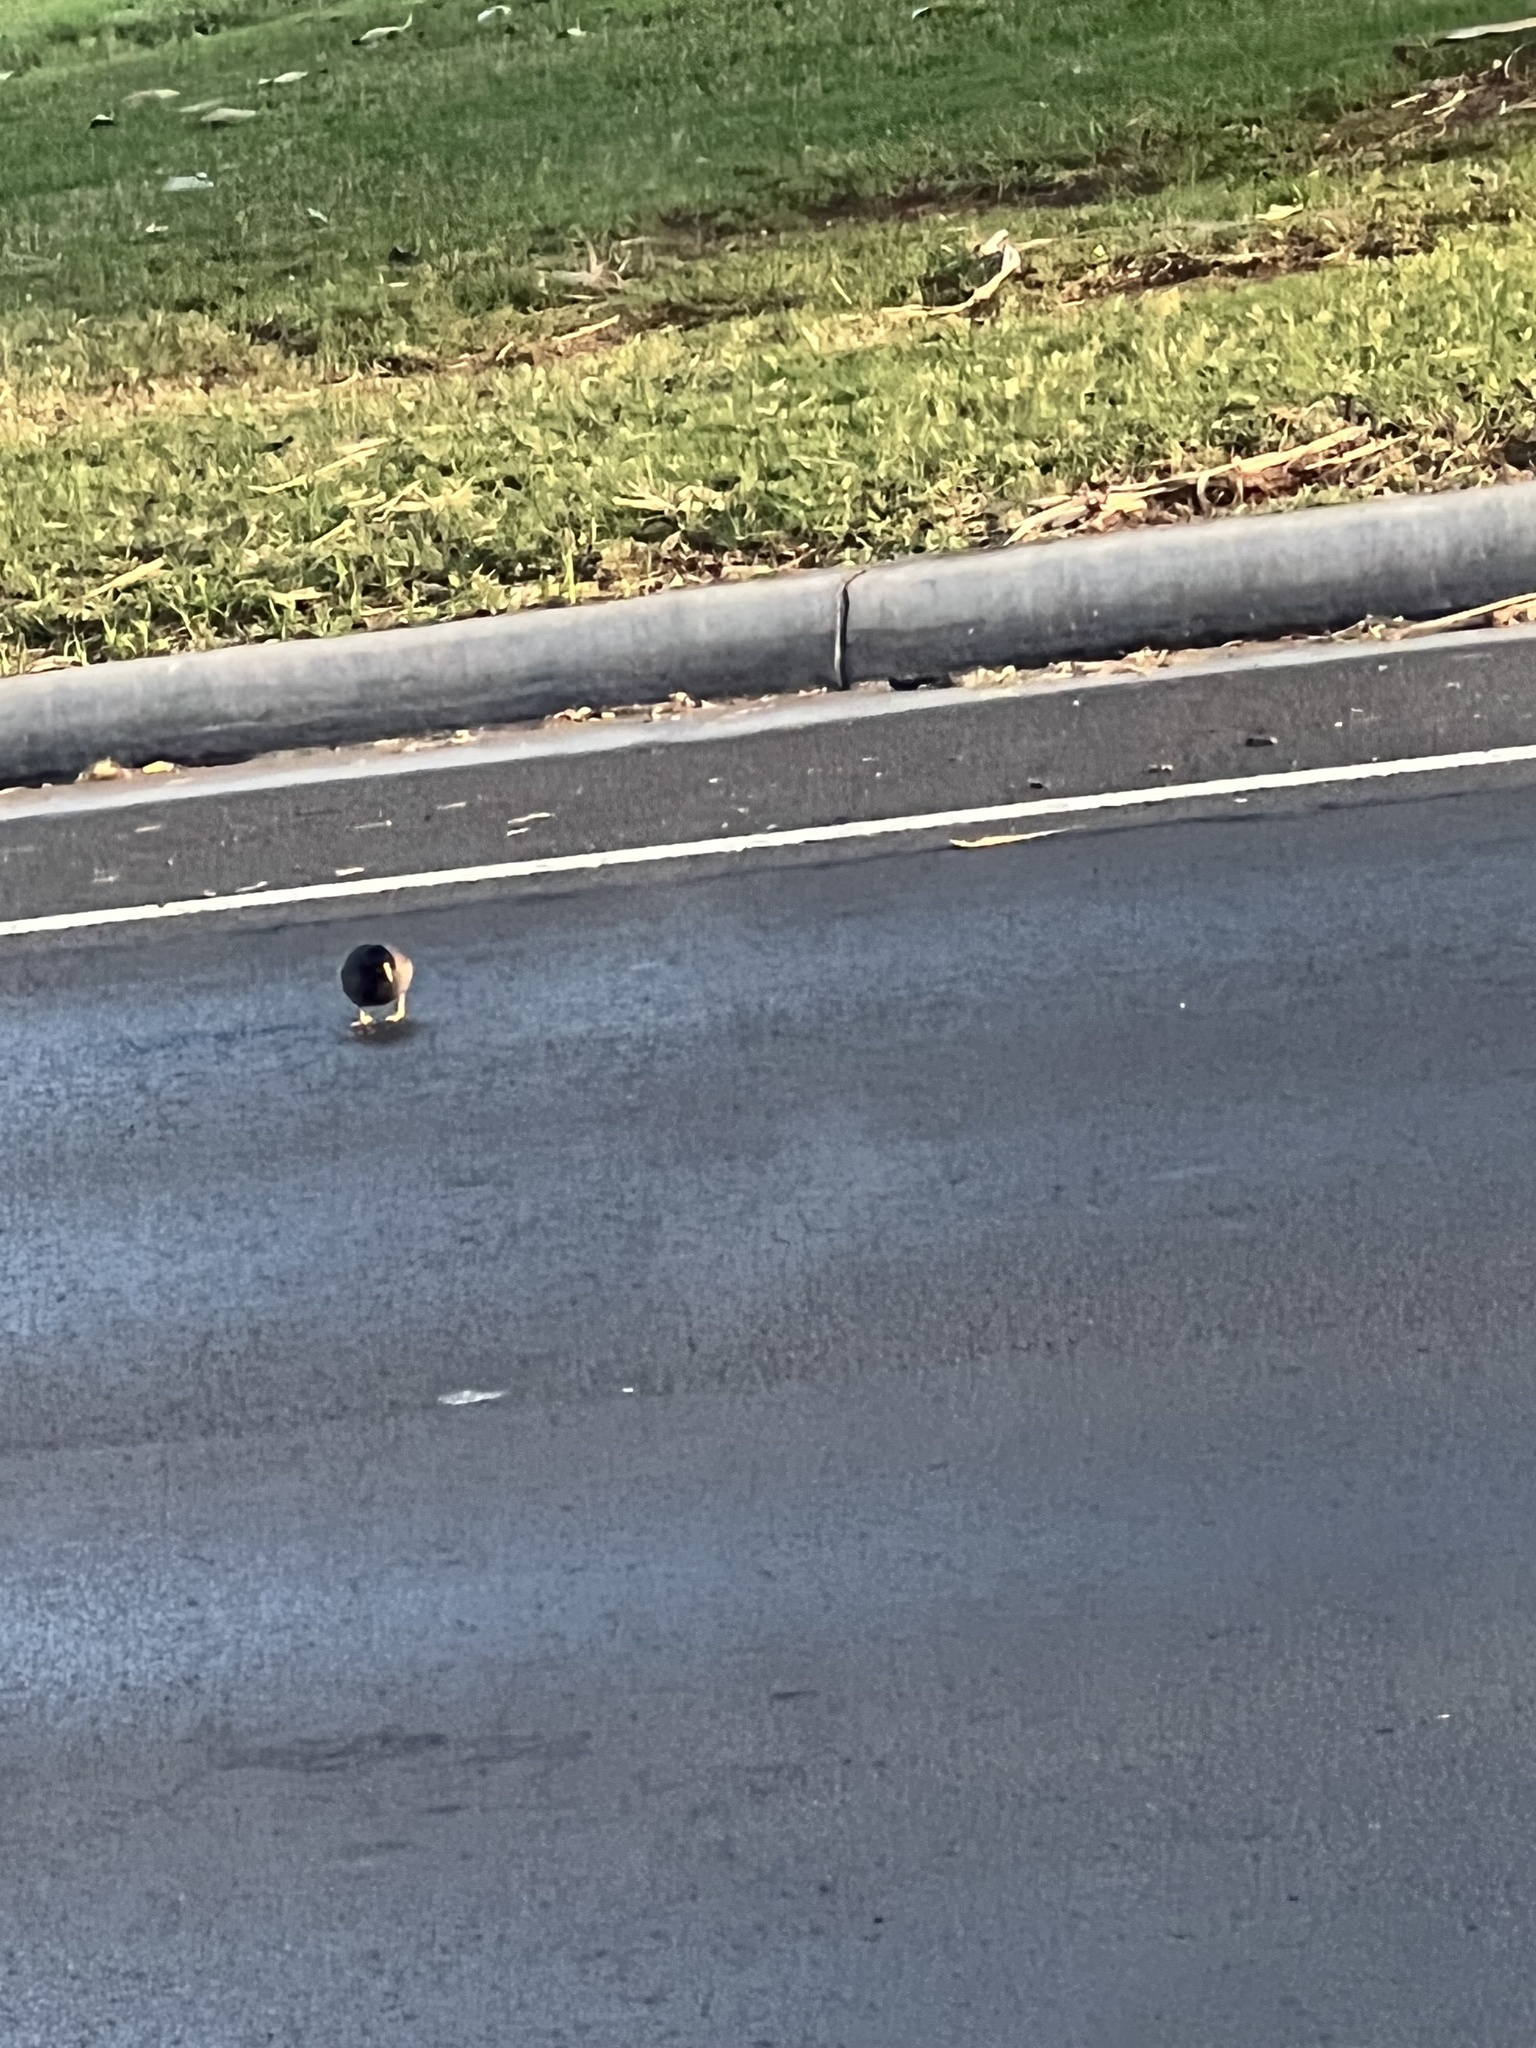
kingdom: Animalia
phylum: Chordata
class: Aves
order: Passeriformes
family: Sturnidae
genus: Acridotheres
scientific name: Acridotheres tristis
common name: Common myna
